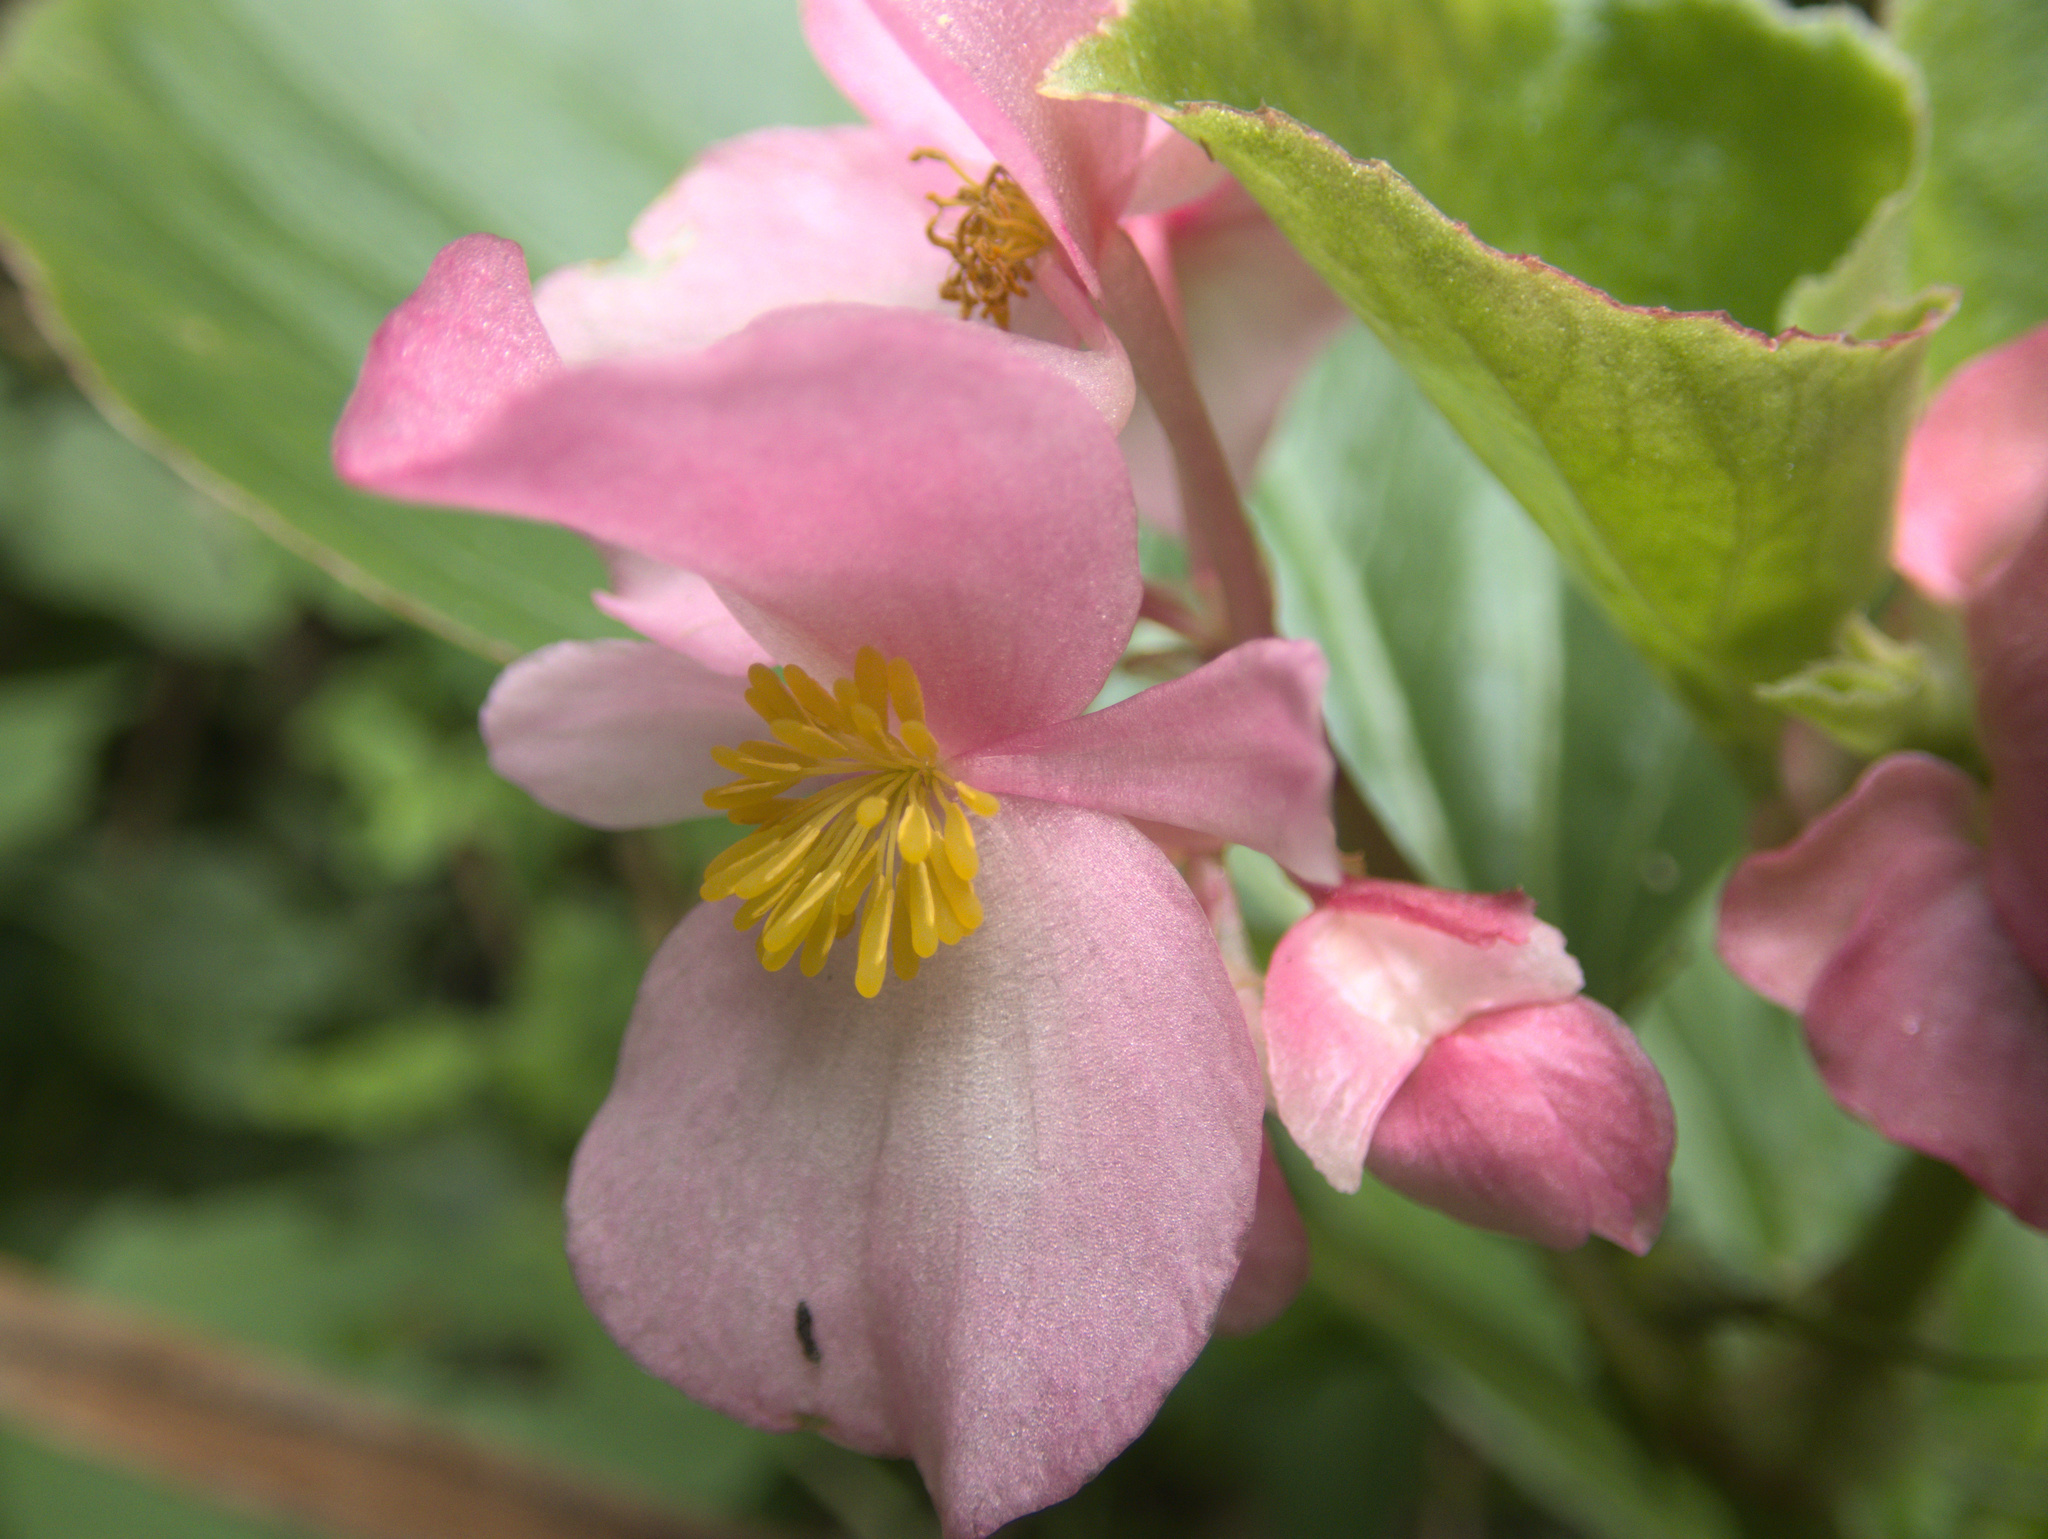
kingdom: Plantae
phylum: Tracheophyta
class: Magnoliopsida
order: Cucurbitales
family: Begoniaceae
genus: Begonia
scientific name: Begonia semperflorens-cultorum
